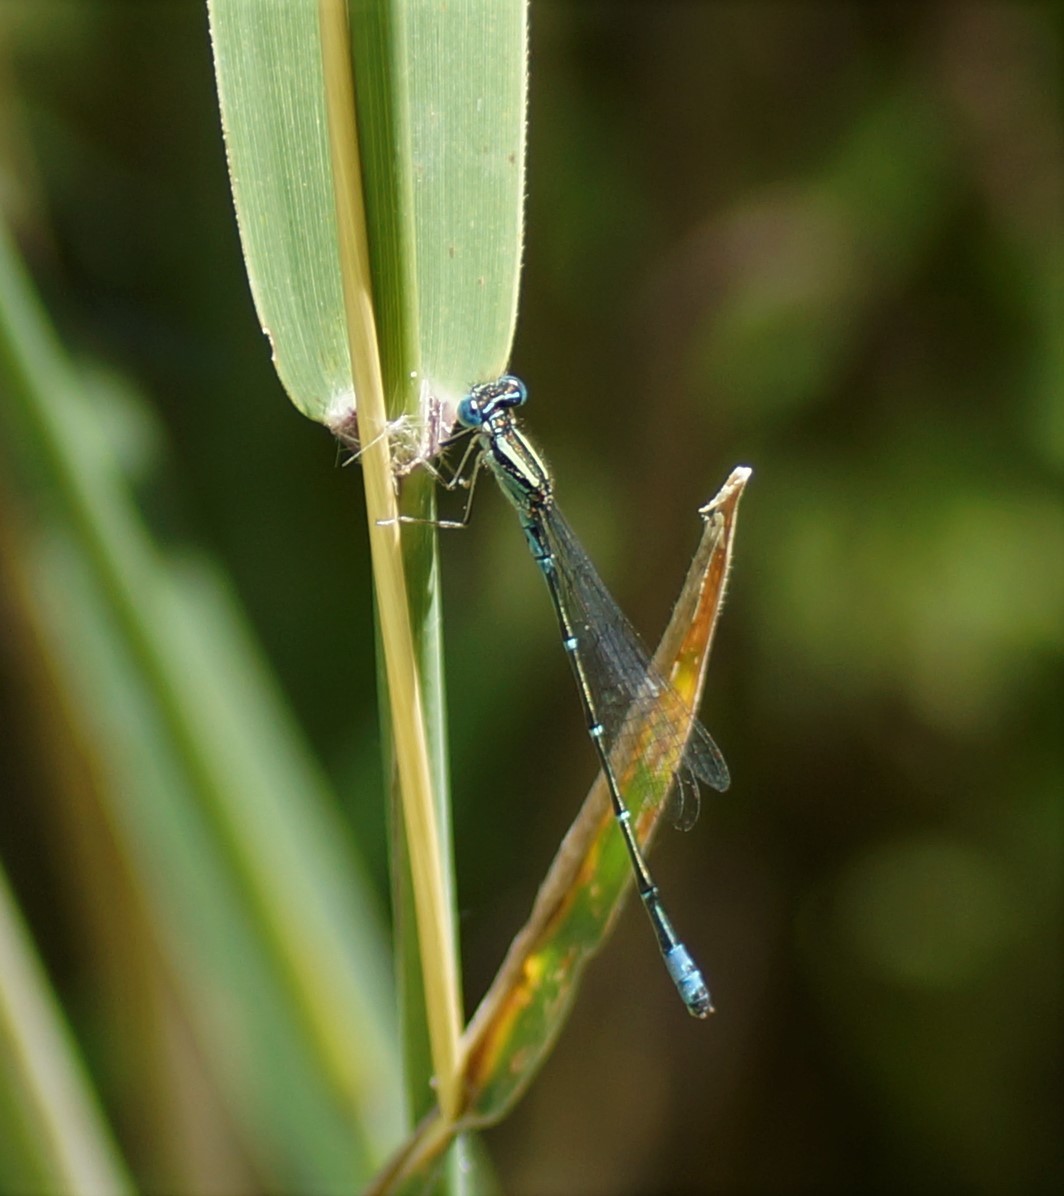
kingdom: Animalia
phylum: Arthropoda
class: Insecta
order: Odonata
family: Coenagrionidae
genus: Austroagrion
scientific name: Austroagrion watsoni
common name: Eastern billabongfly
